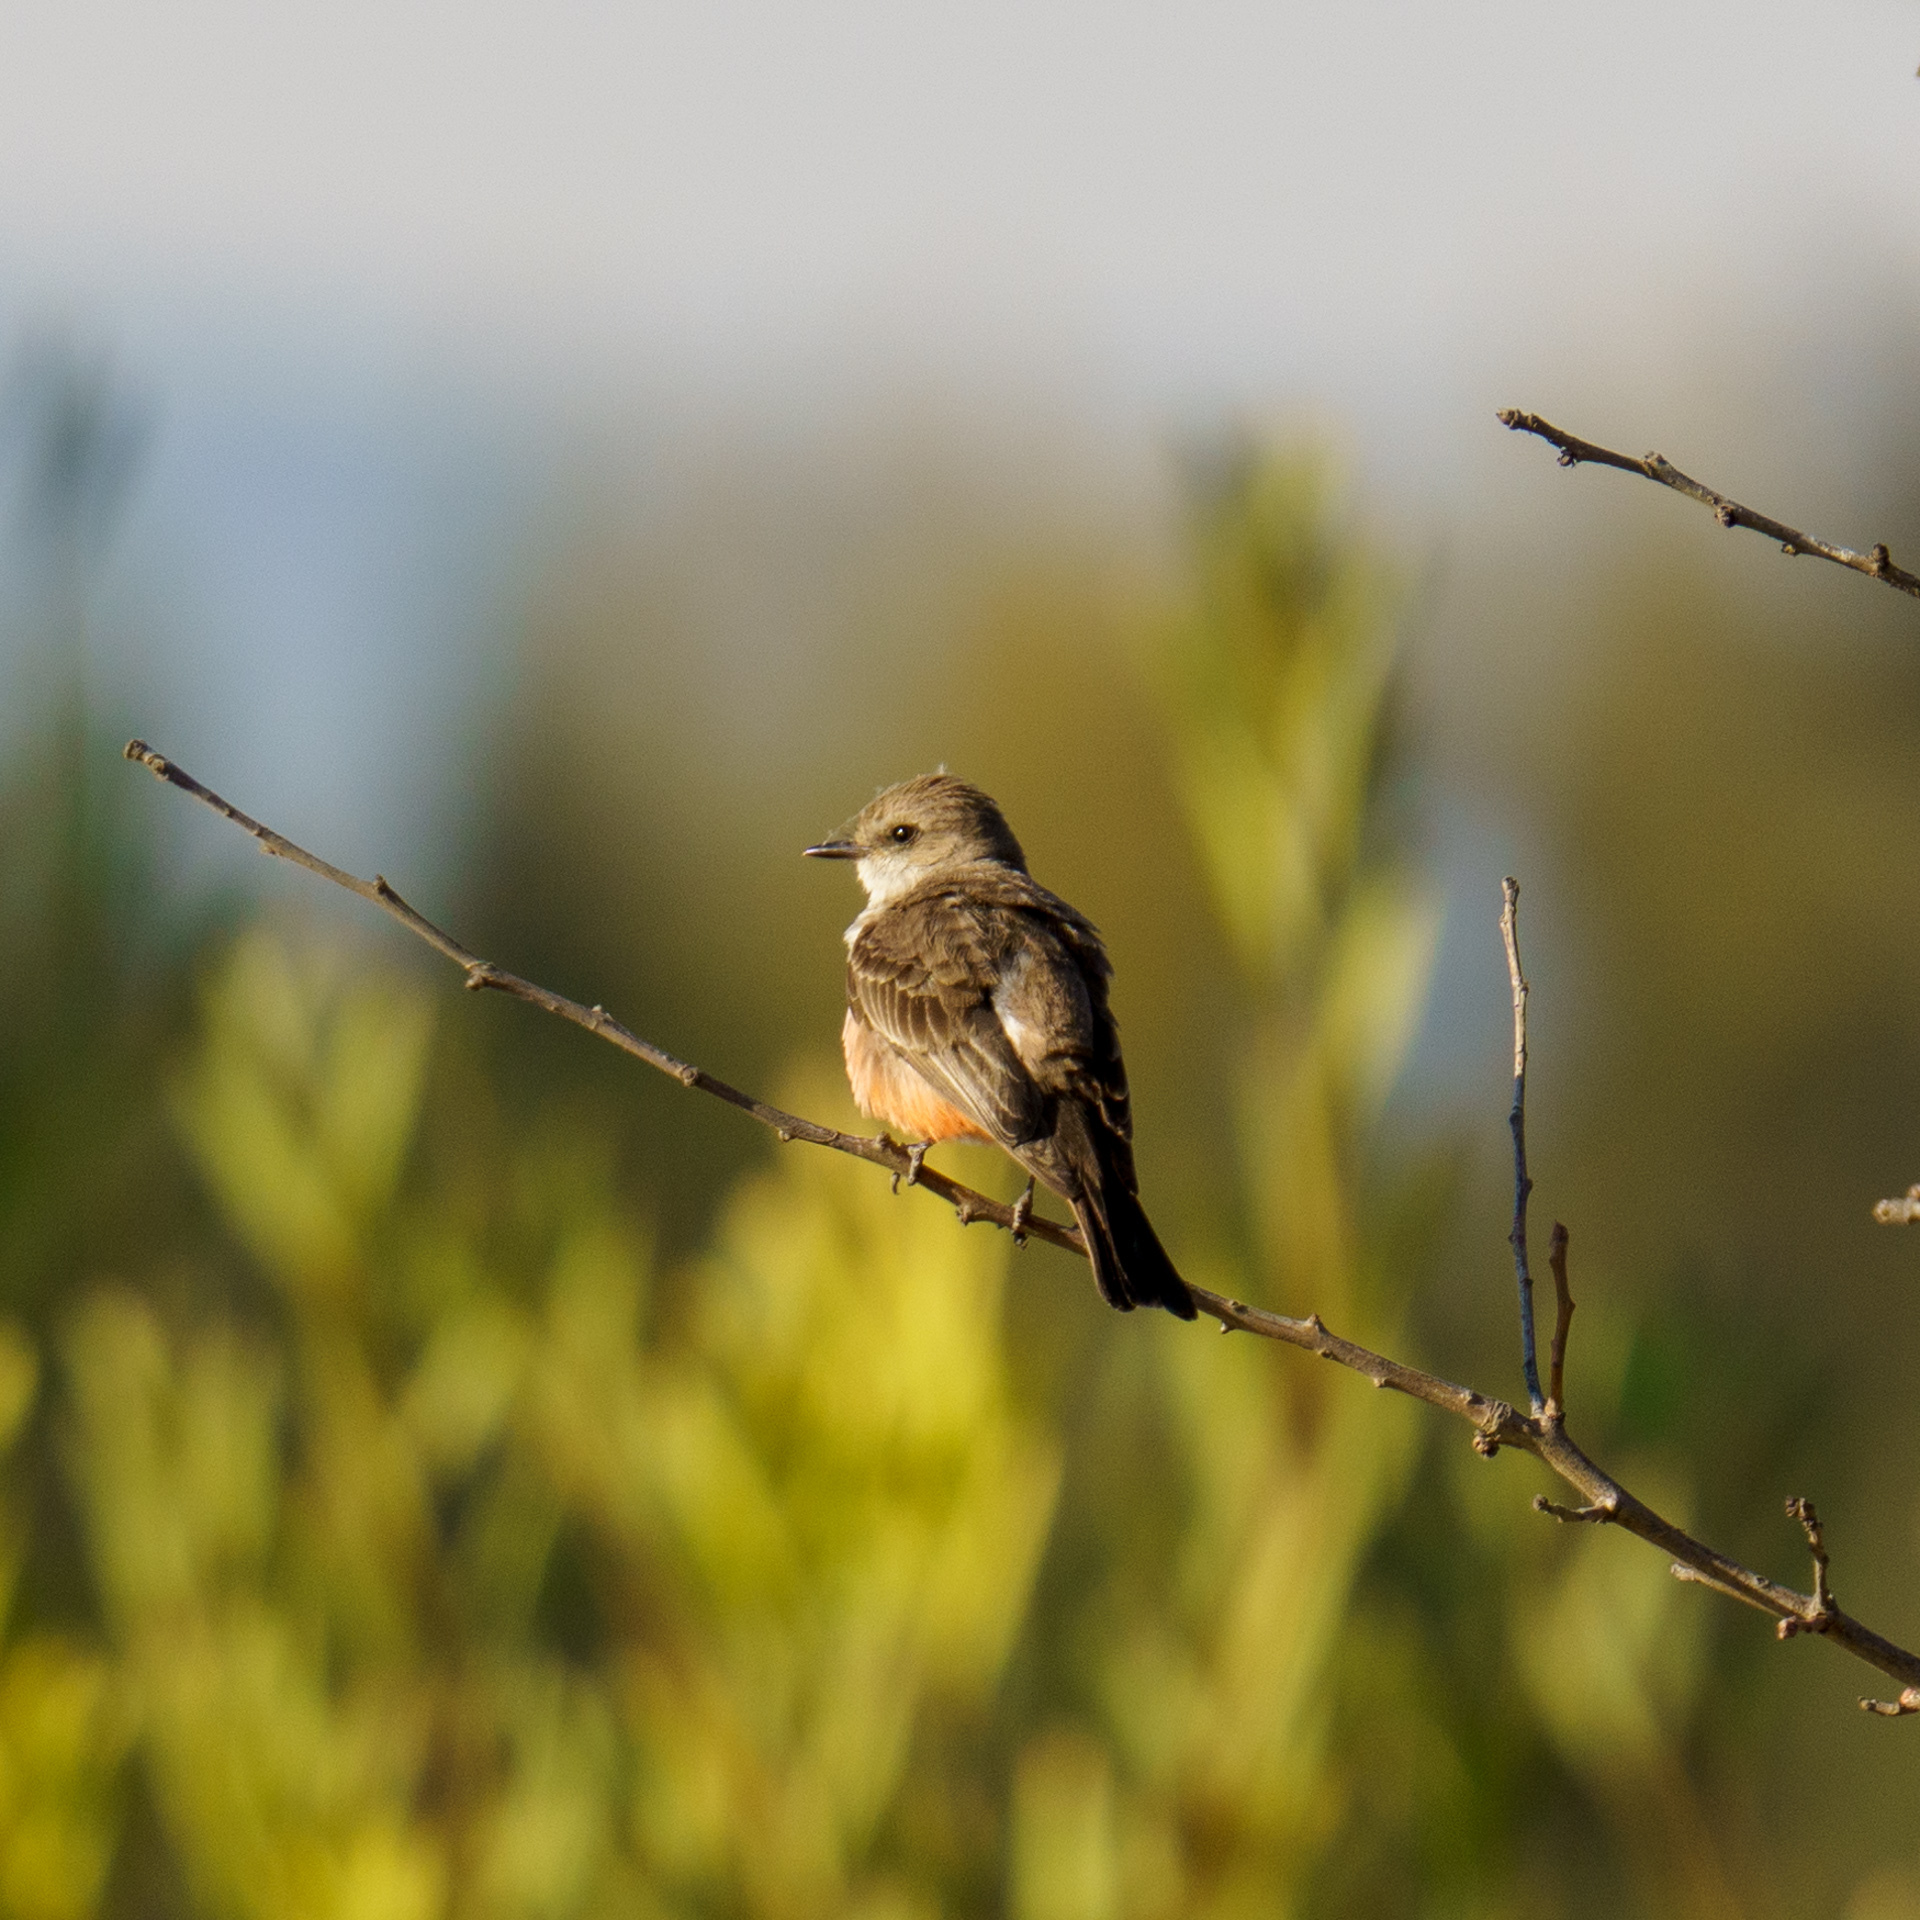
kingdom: Animalia
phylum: Chordata
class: Aves
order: Passeriformes
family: Tyrannidae
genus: Pyrocephalus
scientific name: Pyrocephalus rubinus
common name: Vermilion flycatcher
